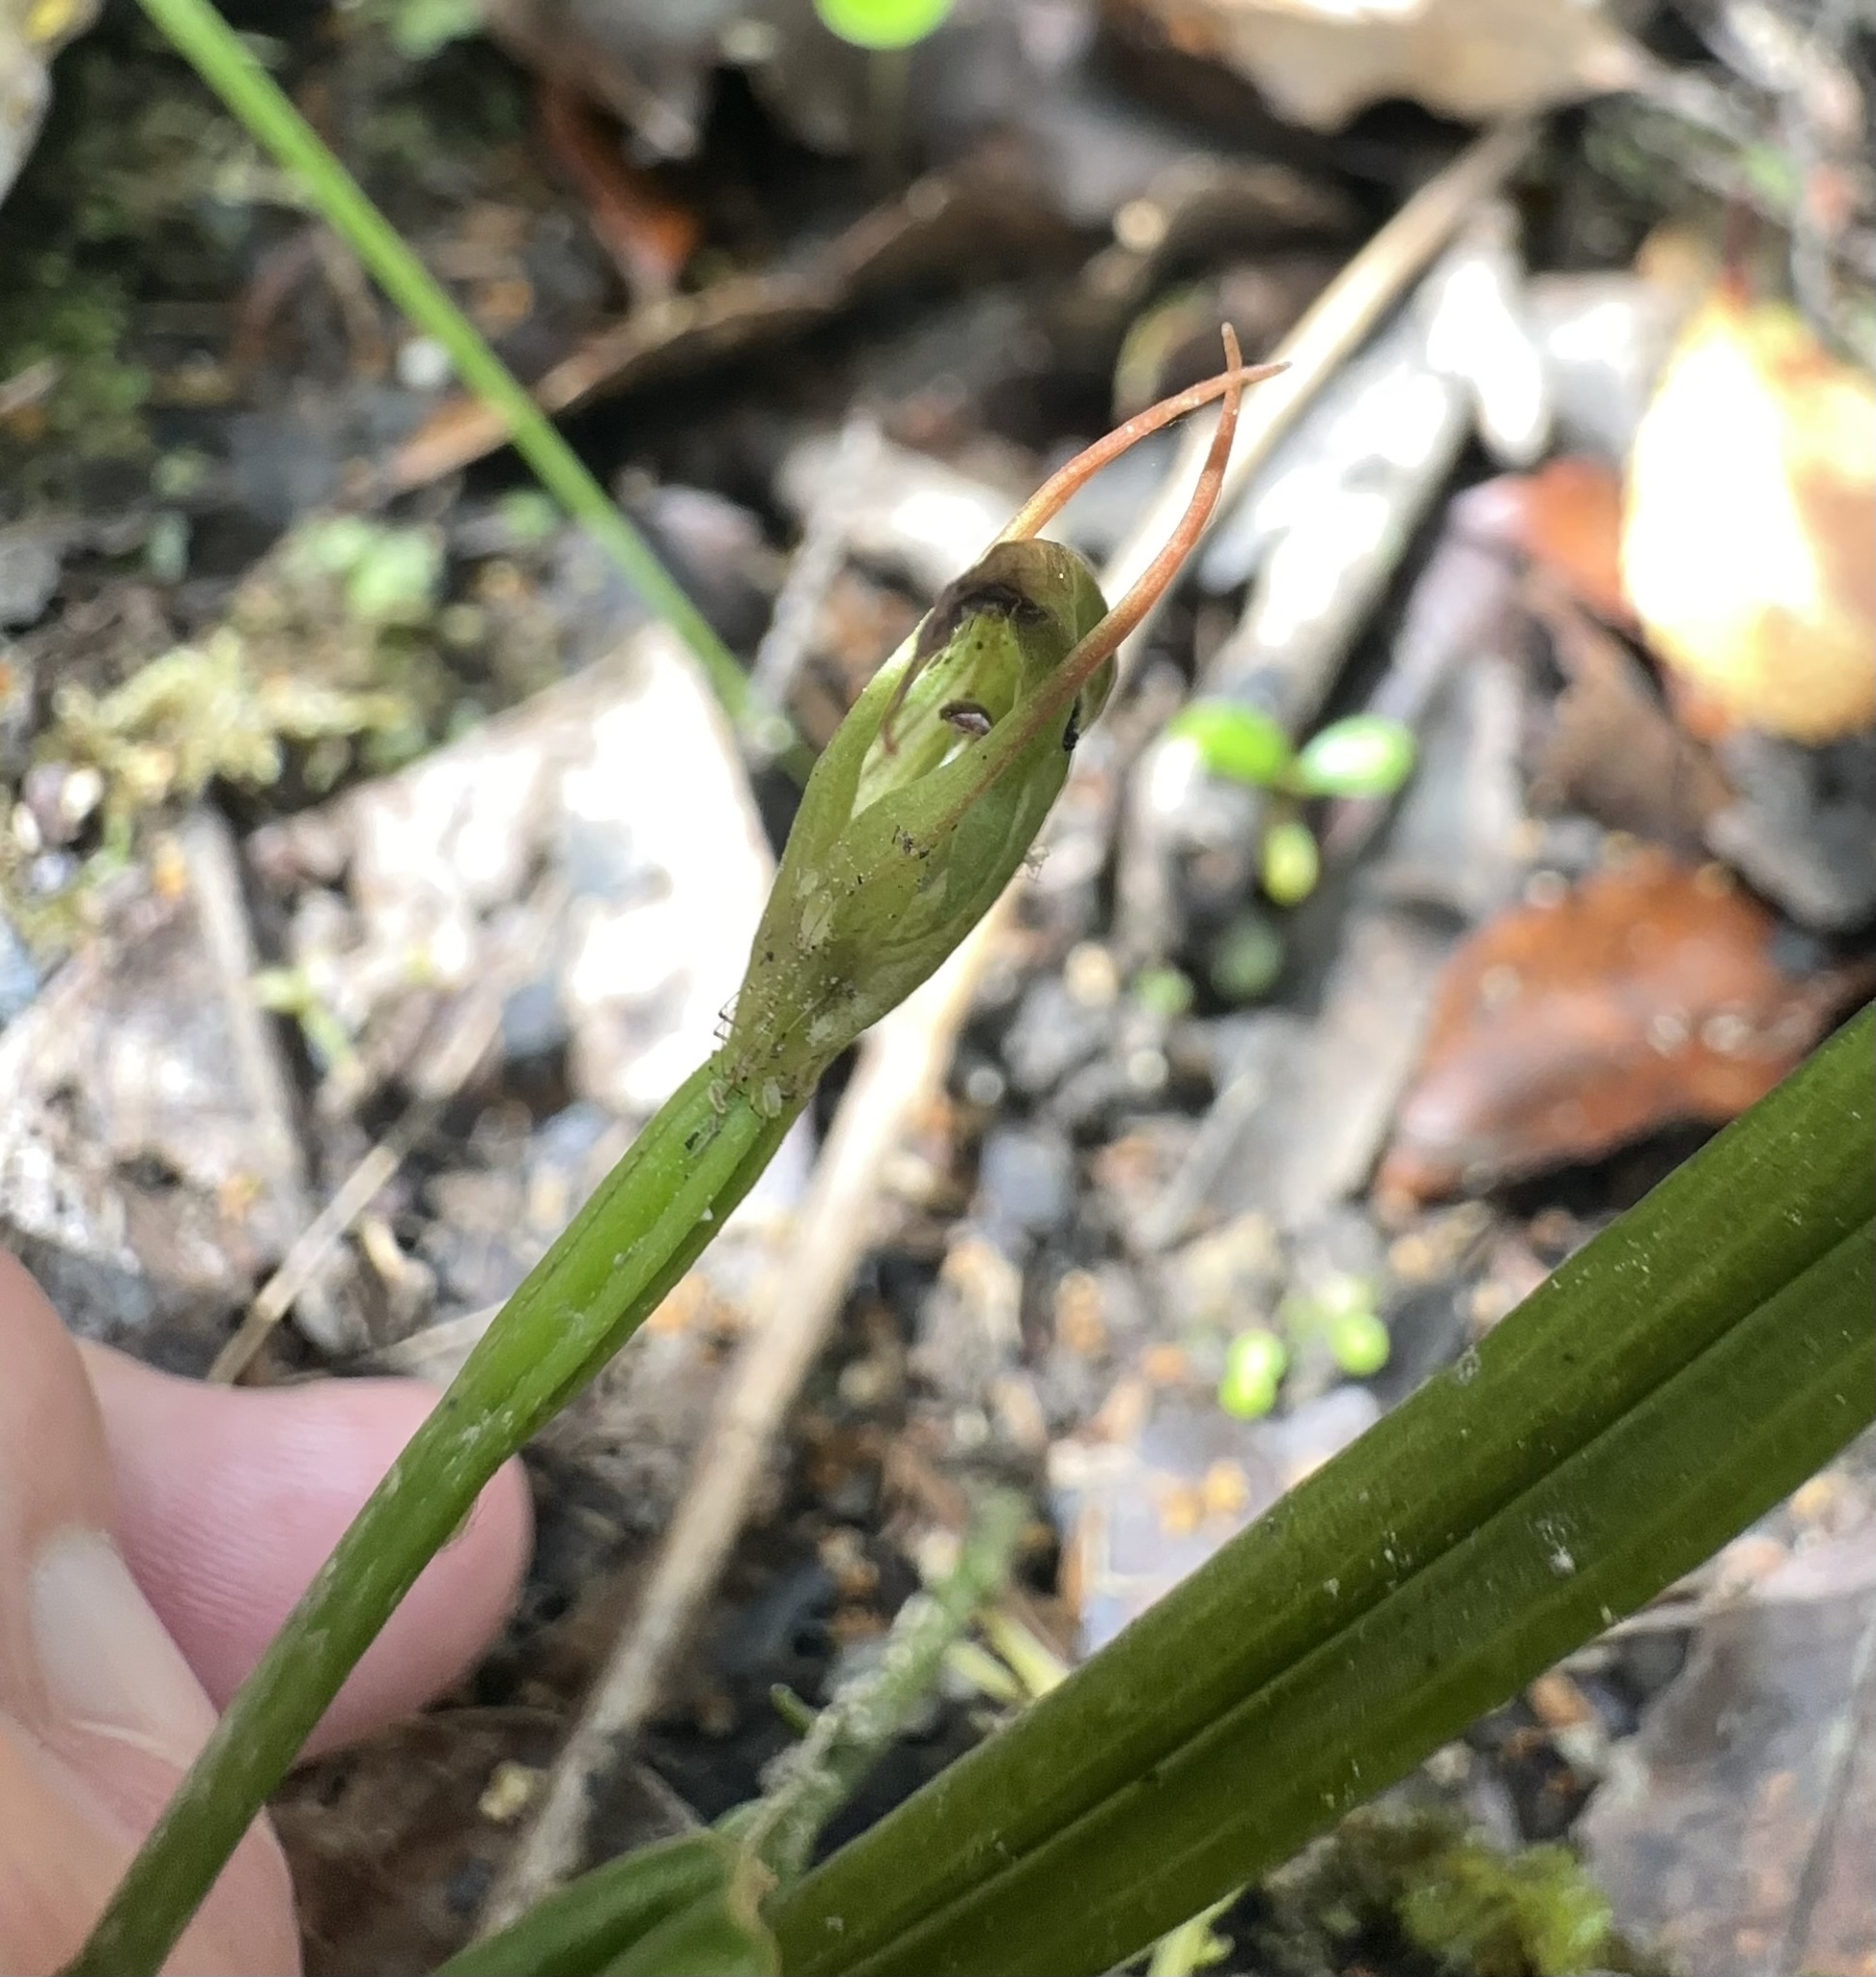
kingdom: Plantae
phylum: Tracheophyta
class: Liliopsida
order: Asparagales
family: Orchidaceae
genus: Pterostylis
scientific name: Pterostylis graminea
